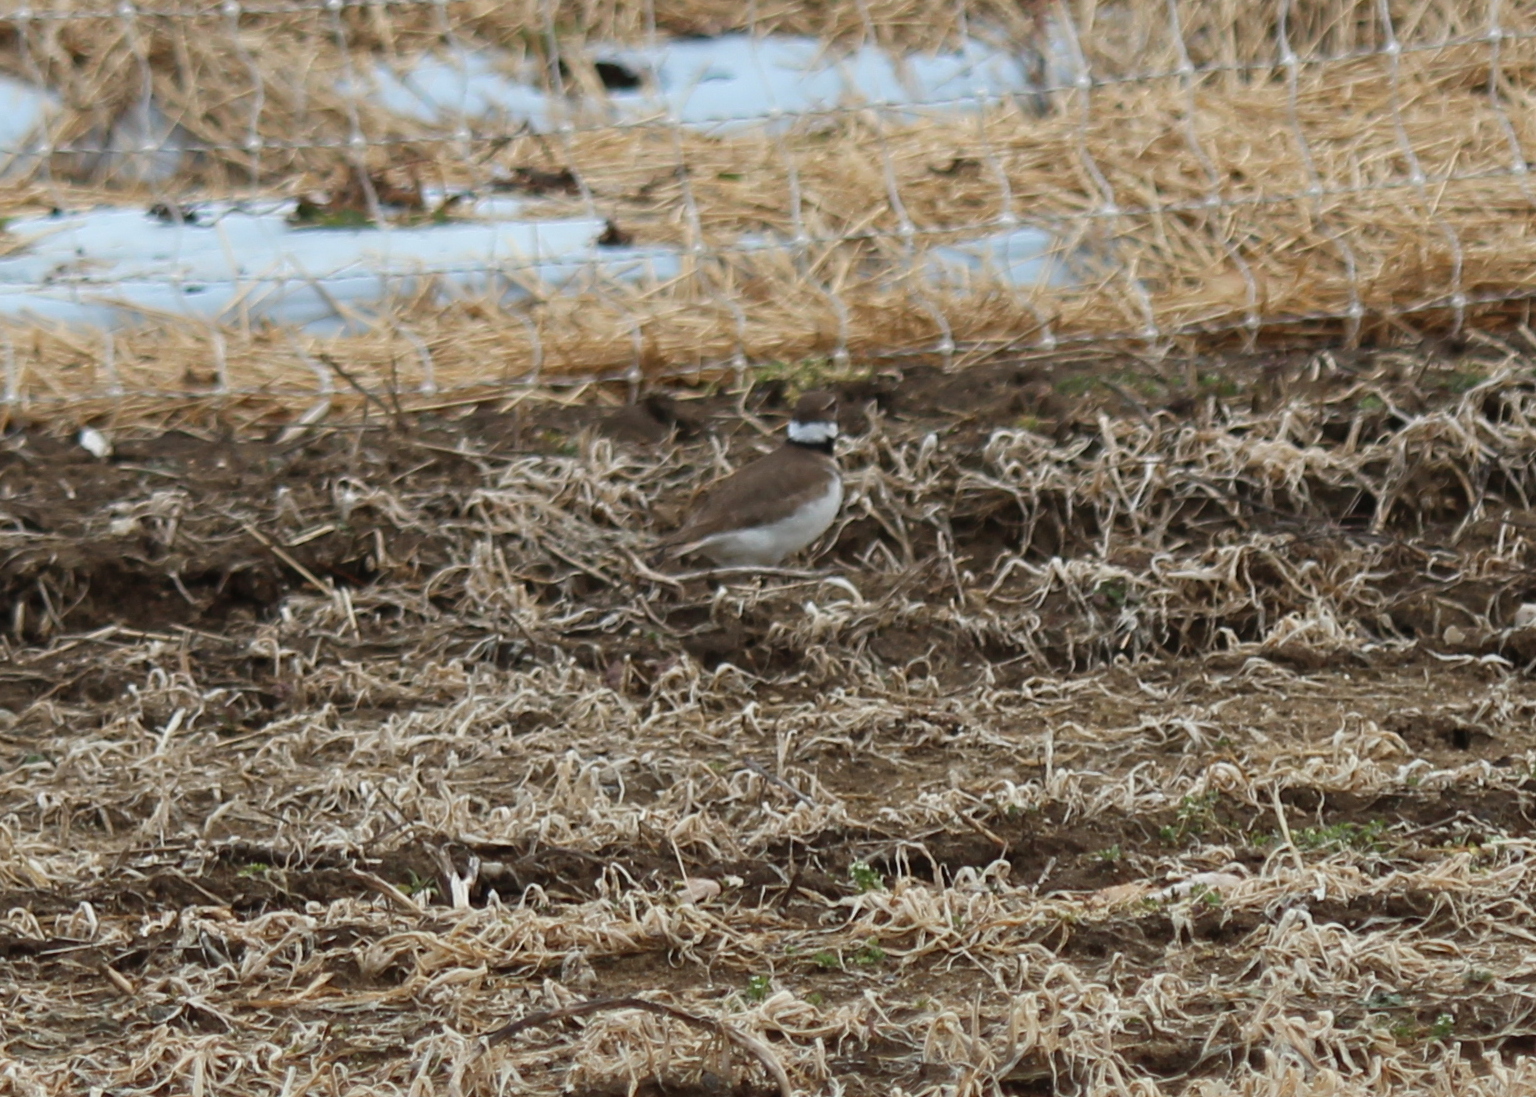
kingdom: Animalia
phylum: Chordata
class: Aves
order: Charadriiformes
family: Charadriidae
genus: Charadrius
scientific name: Charadrius vociferus
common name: Killdeer
